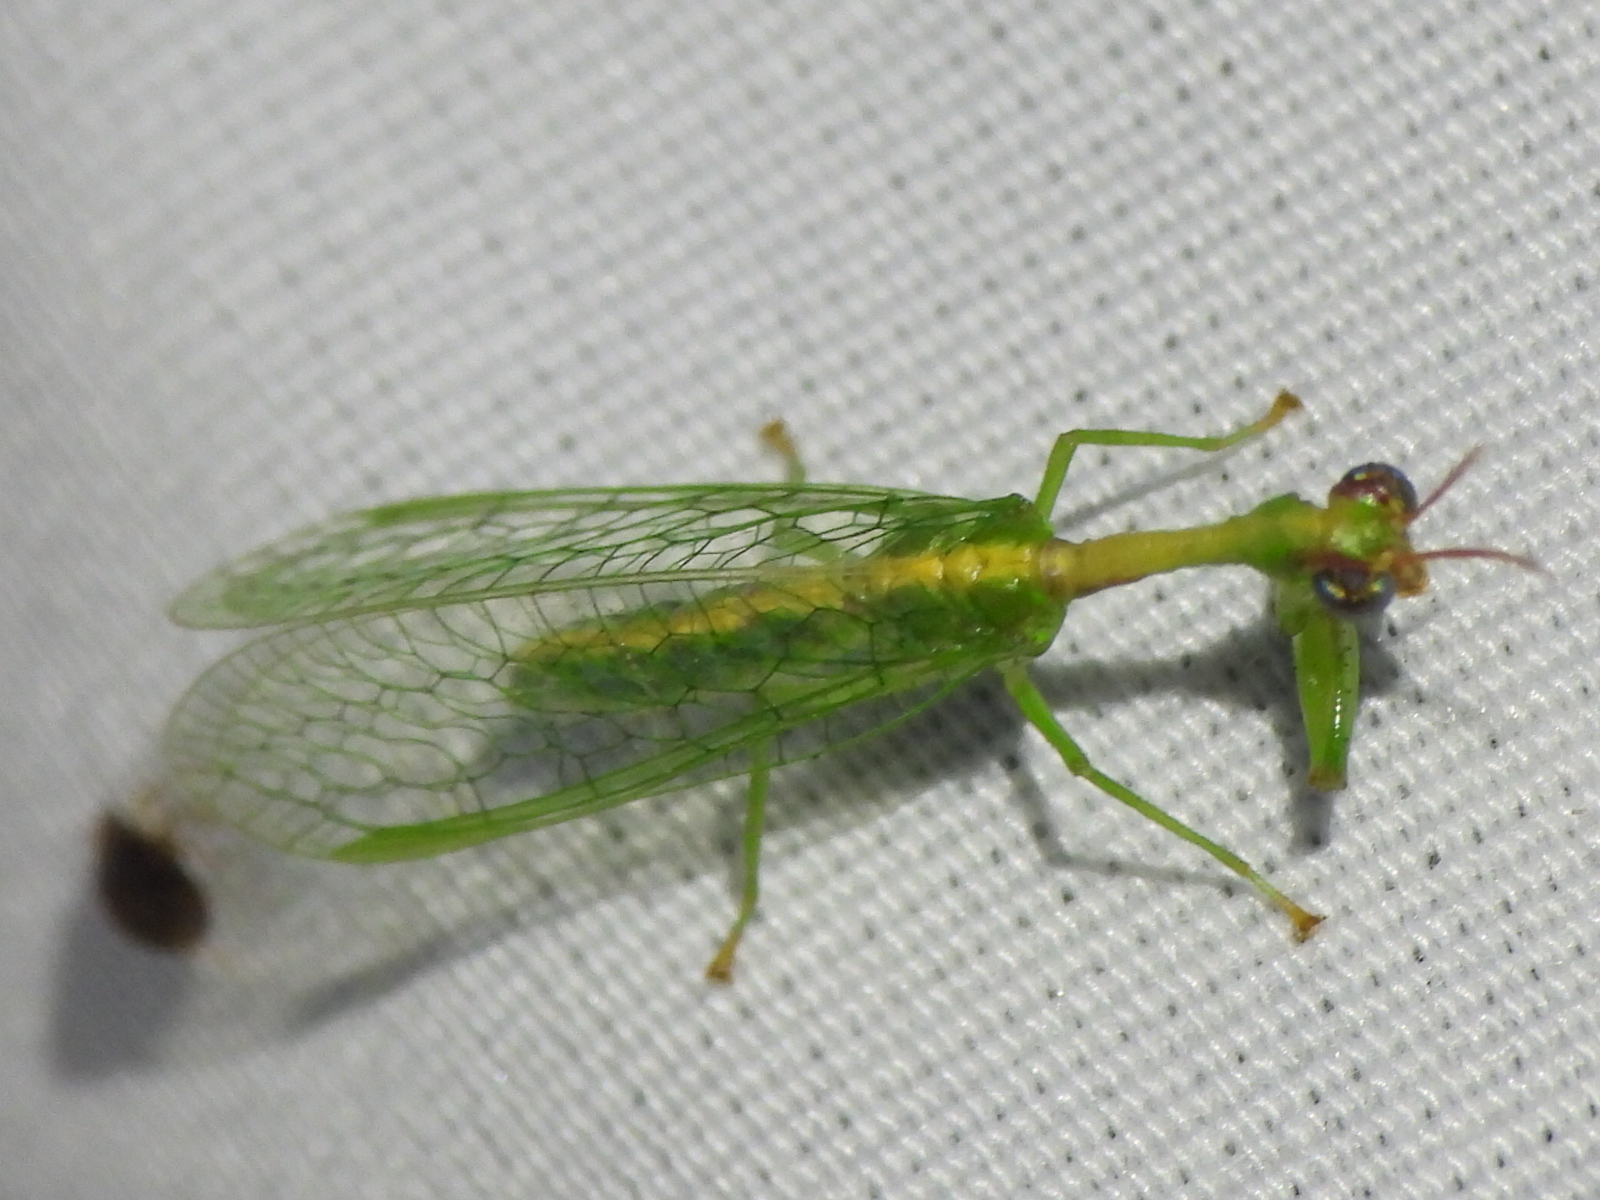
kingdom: Animalia
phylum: Arthropoda
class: Insecta
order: Neuroptera
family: Mantispidae
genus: Zeugomantispa
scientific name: Zeugomantispa minuta
